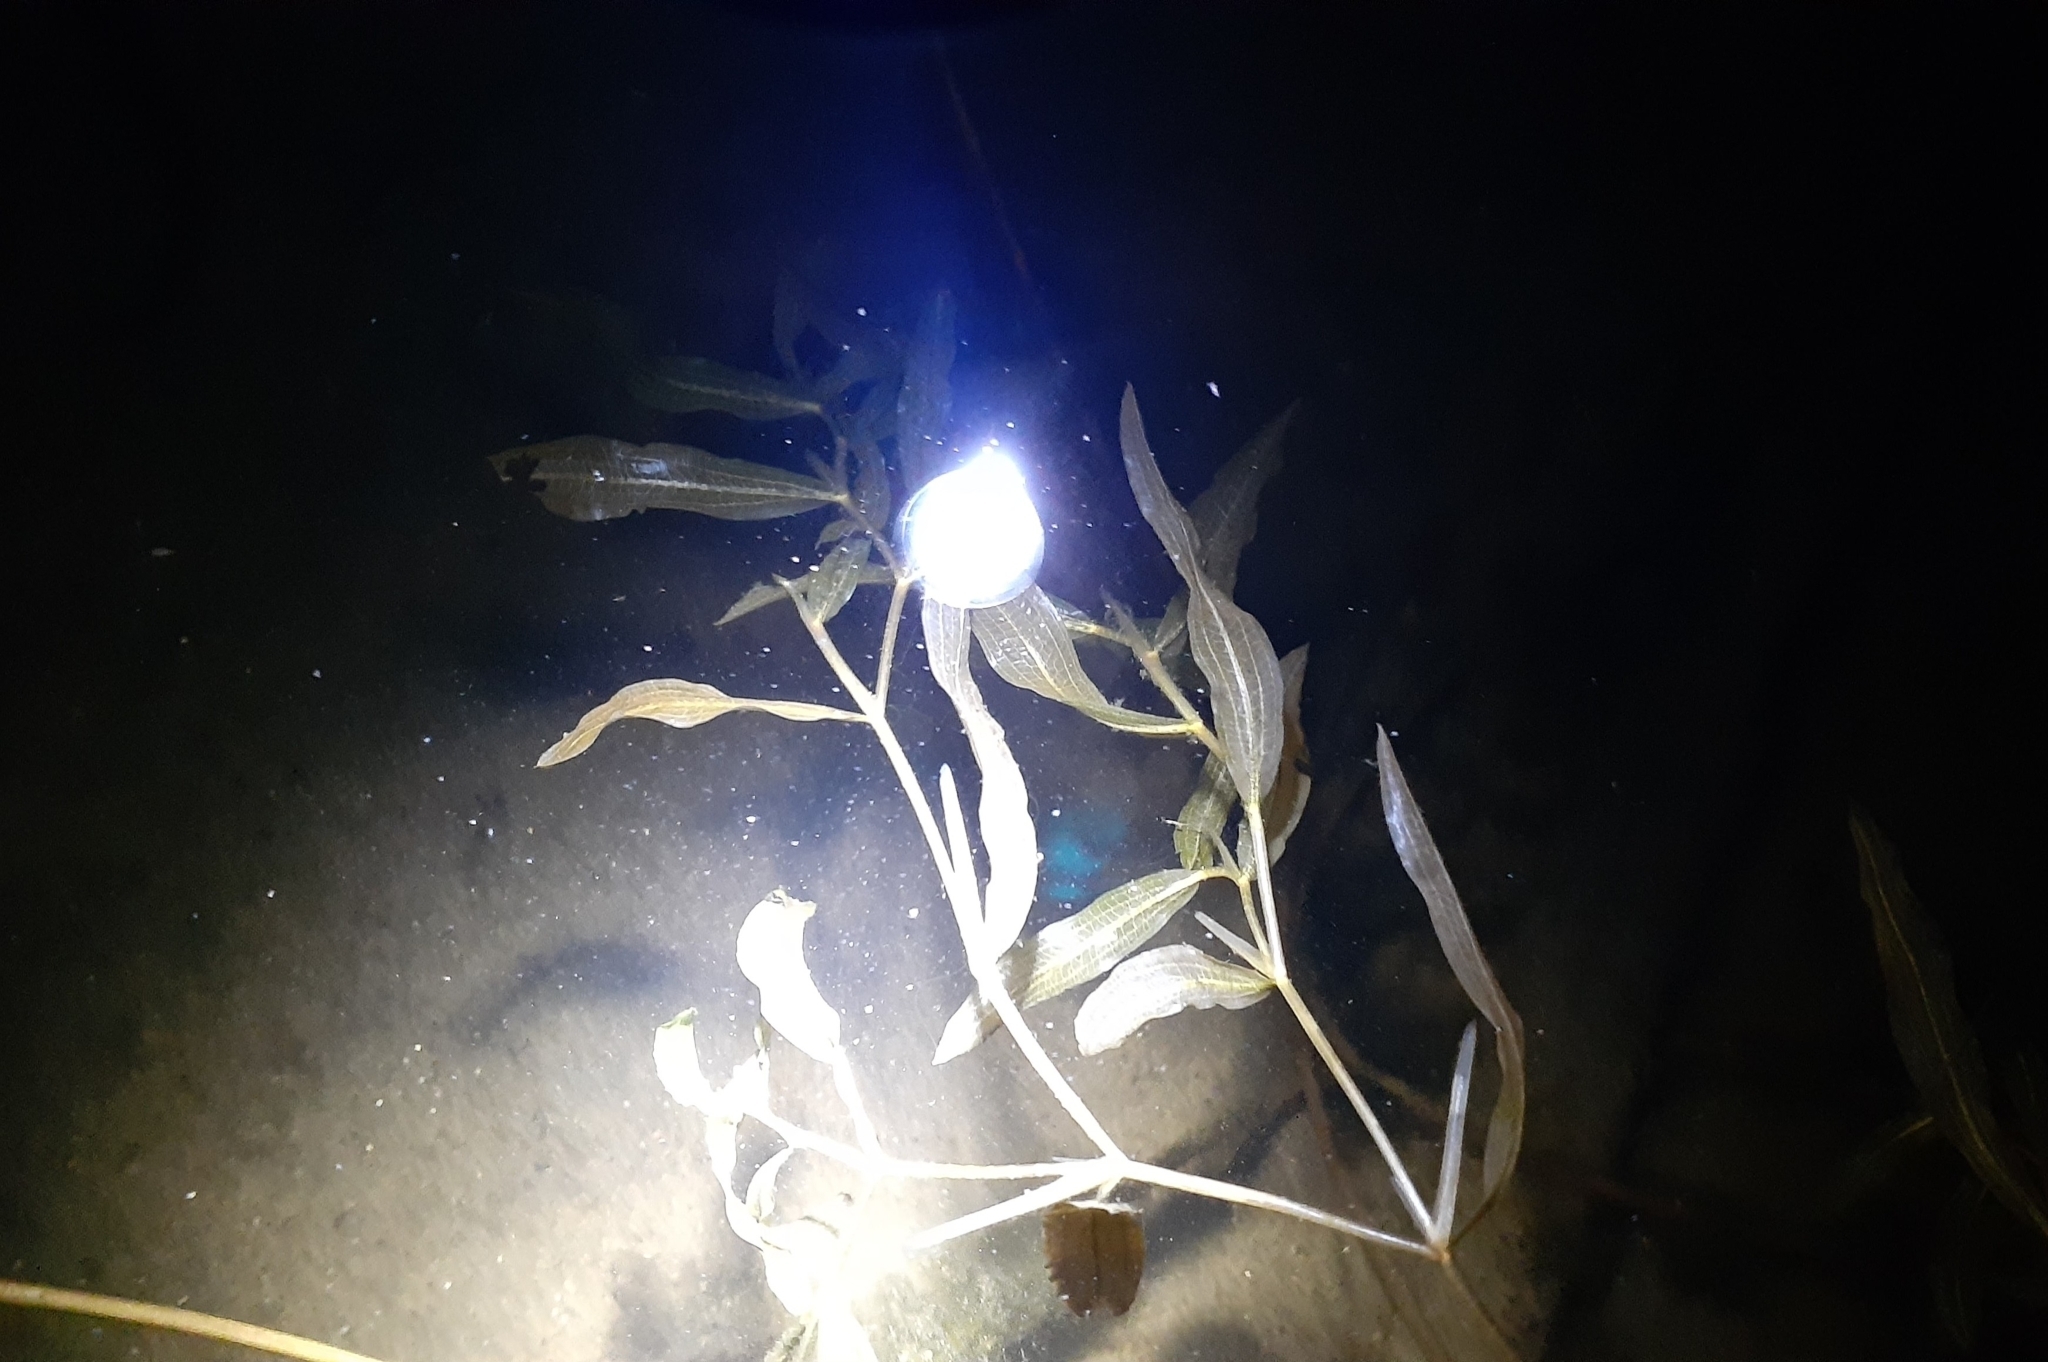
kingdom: Plantae
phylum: Tracheophyta
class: Liliopsida
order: Alismatales
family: Potamogetonaceae
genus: Potamogeton
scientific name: Potamogeton alpinus
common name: Red pondweed
